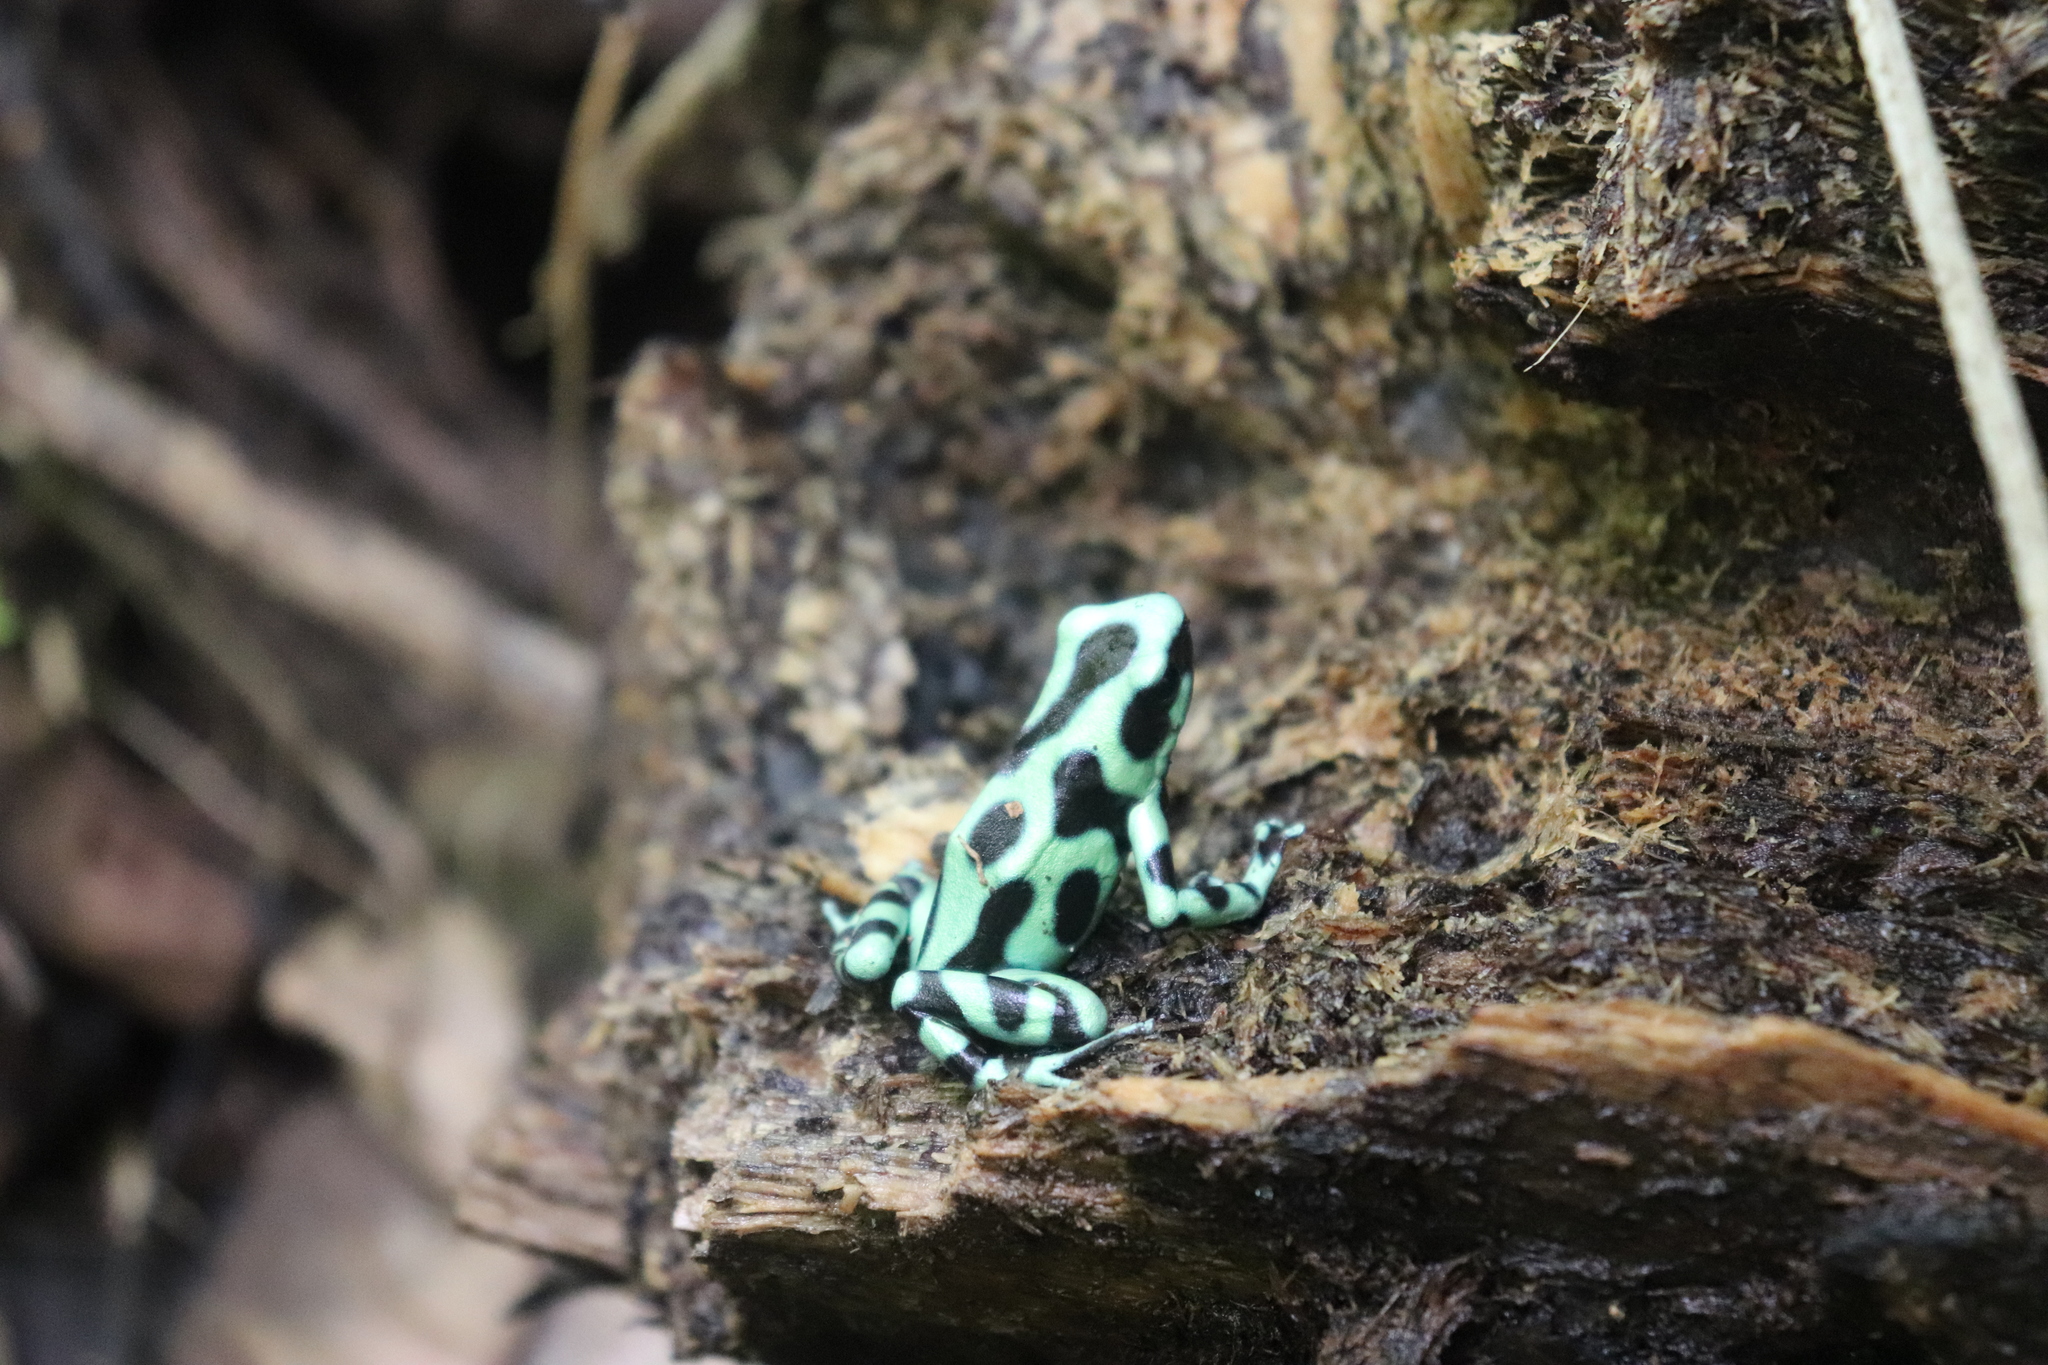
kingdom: Animalia
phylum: Chordata
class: Amphibia
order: Anura
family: Dendrobatidae
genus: Dendrobates
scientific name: Dendrobates auratus
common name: Green and black poison dart frog
